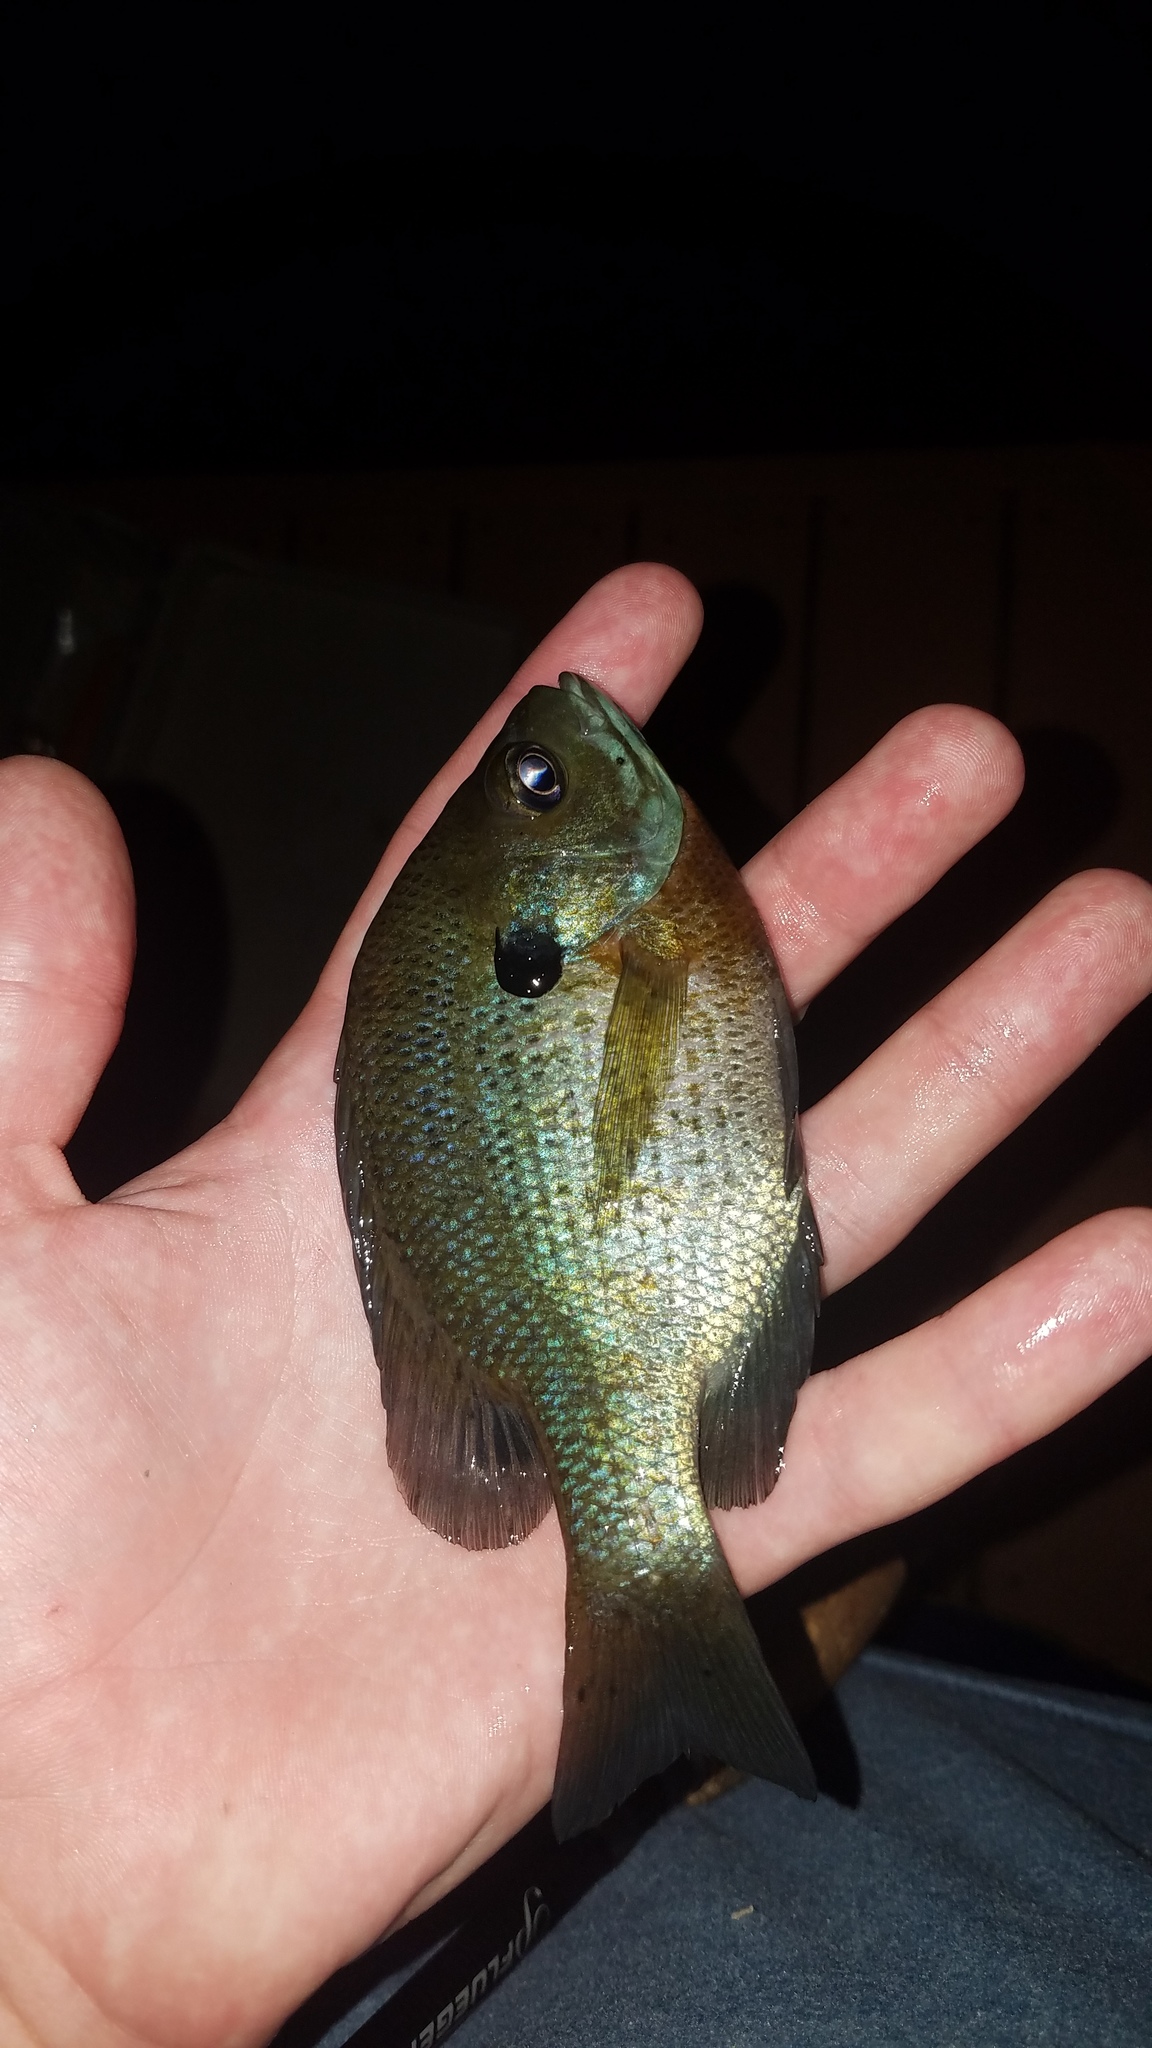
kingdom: Animalia
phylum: Chordata
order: Perciformes
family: Centrarchidae
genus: Lepomis
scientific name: Lepomis macrochirus
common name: Bluegill
